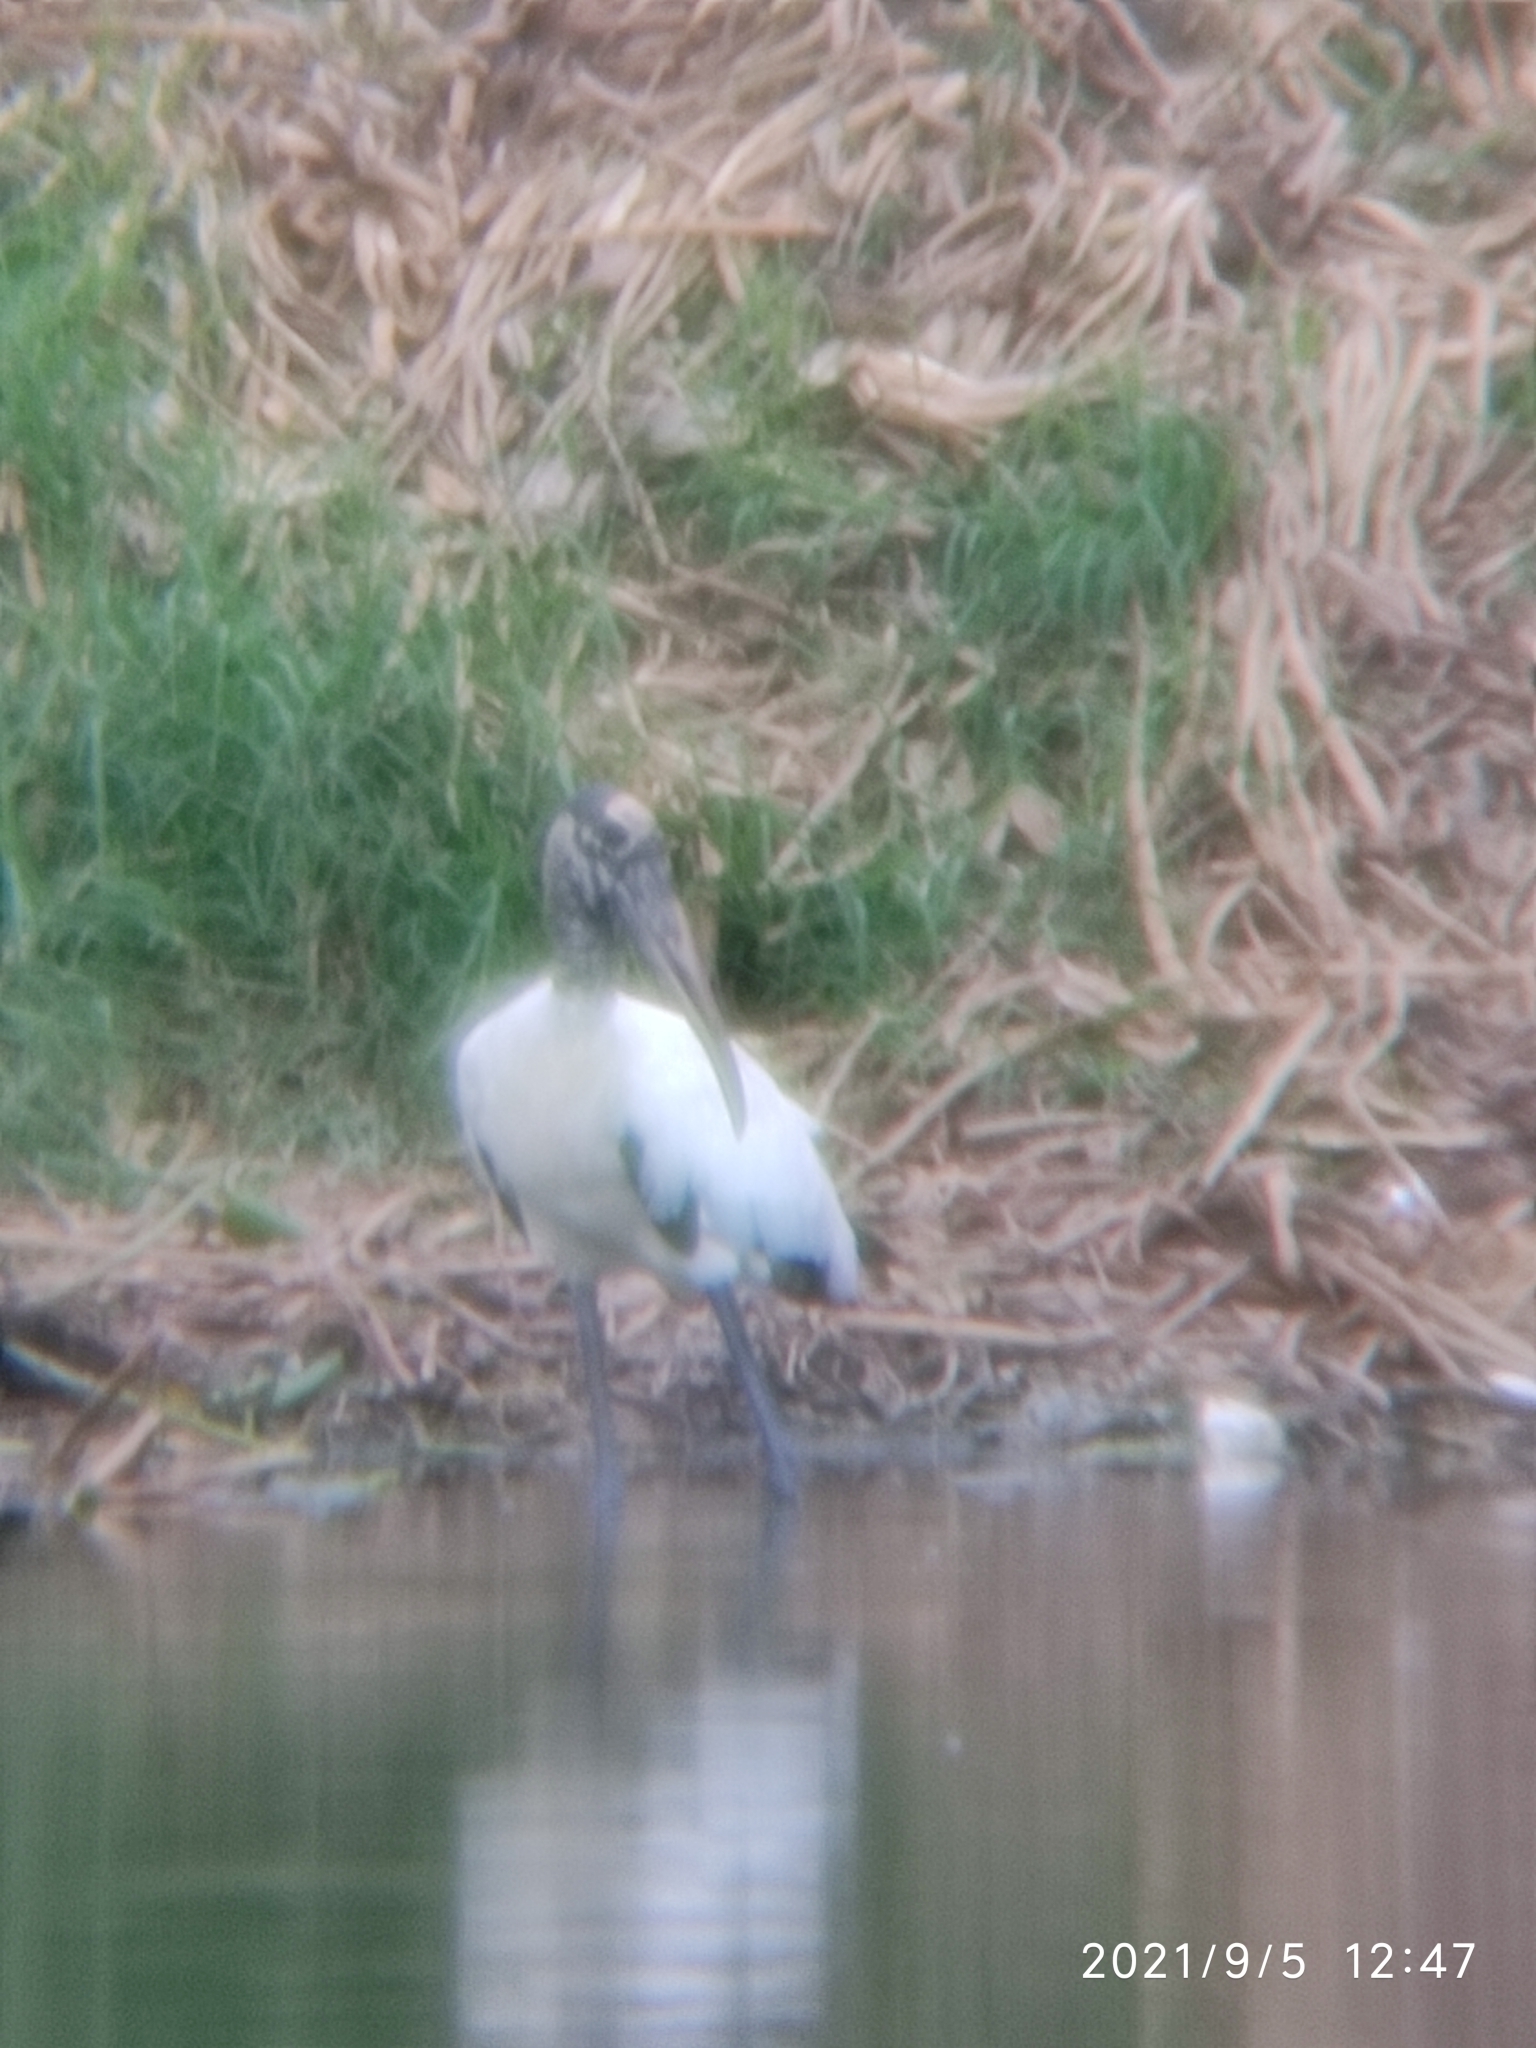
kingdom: Animalia
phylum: Chordata
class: Aves
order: Ciconiiformes
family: Ciconiidae
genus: Mycteria
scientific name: Mycteria americana
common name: Wood stork
